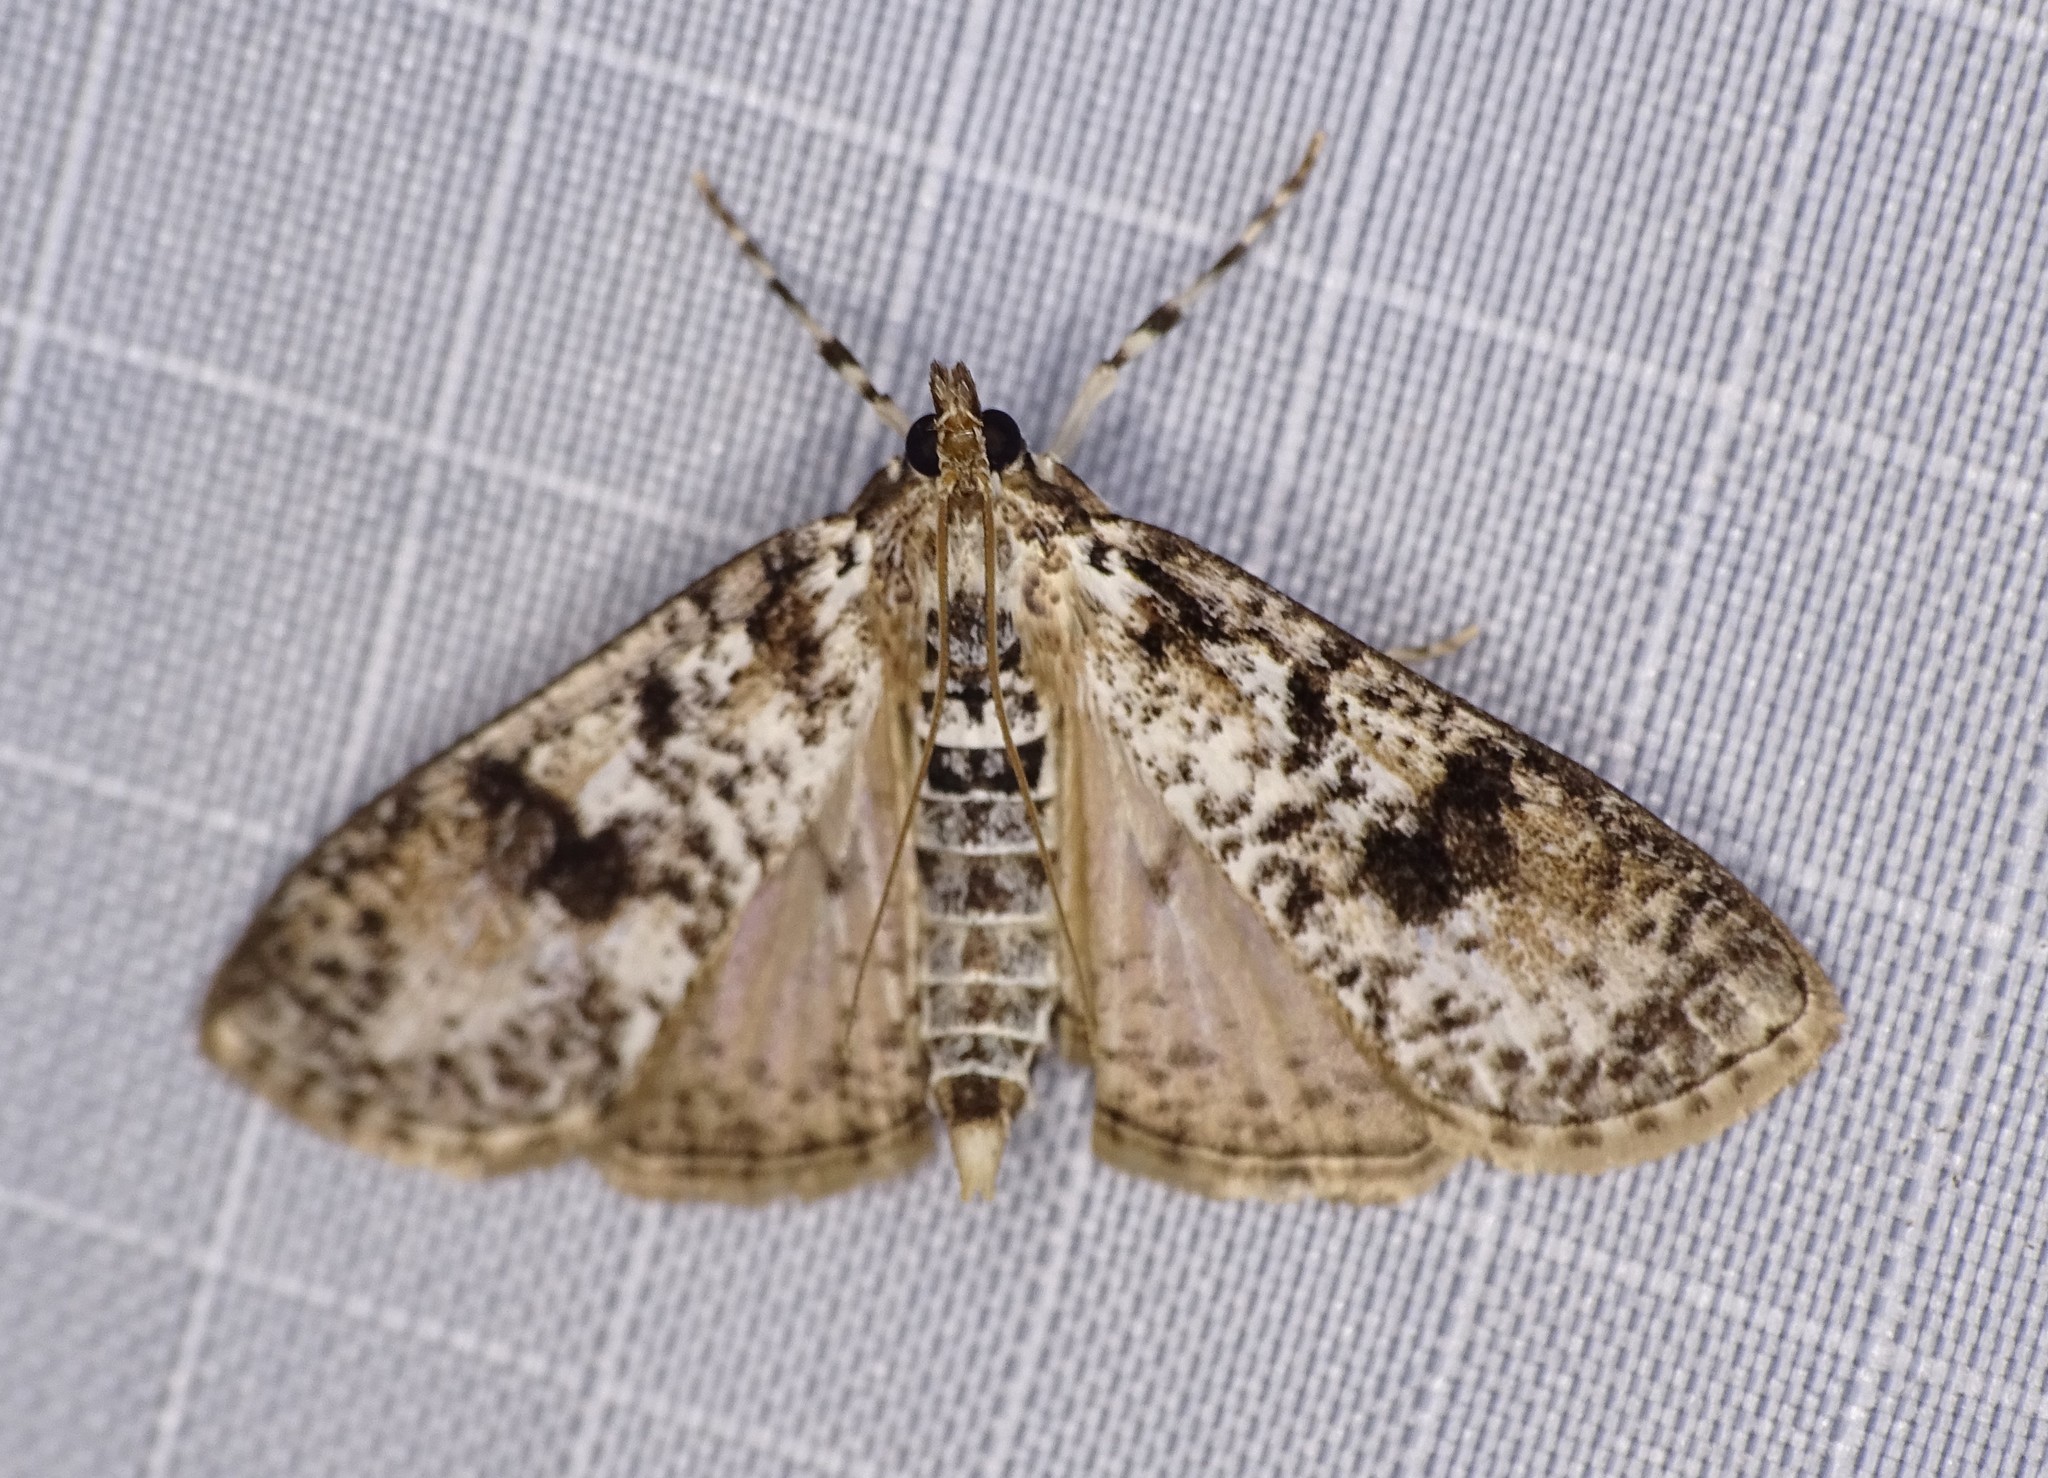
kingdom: Animalia
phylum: Arthropoda
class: Insecta
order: Lepidoptera
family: Crambidae
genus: Palpita
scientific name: Palpita magniferalis
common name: Splendid palpita moth
